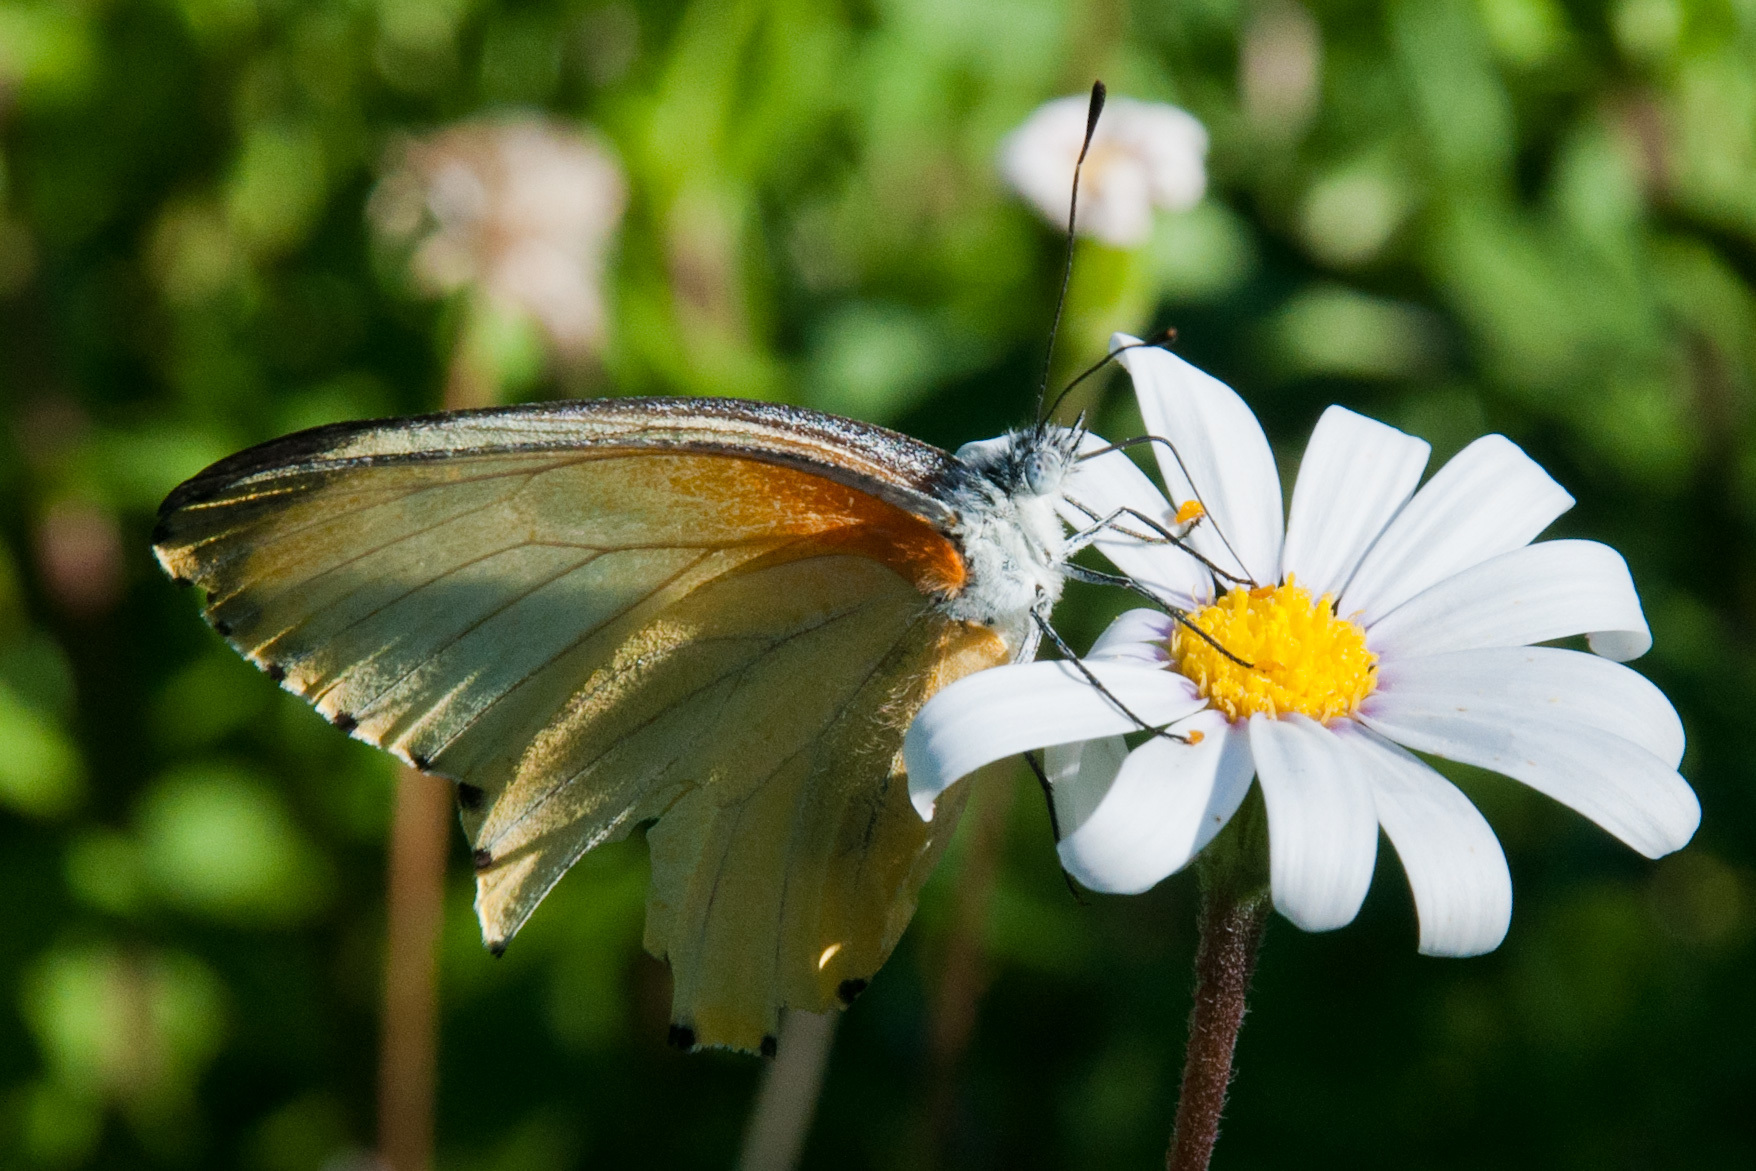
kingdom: Animalia
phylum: Arthropoda
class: Insecta
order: Lepidoptera
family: Pieridae
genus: Mylothris
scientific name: Mylothris agathina
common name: Eastern dotted border
